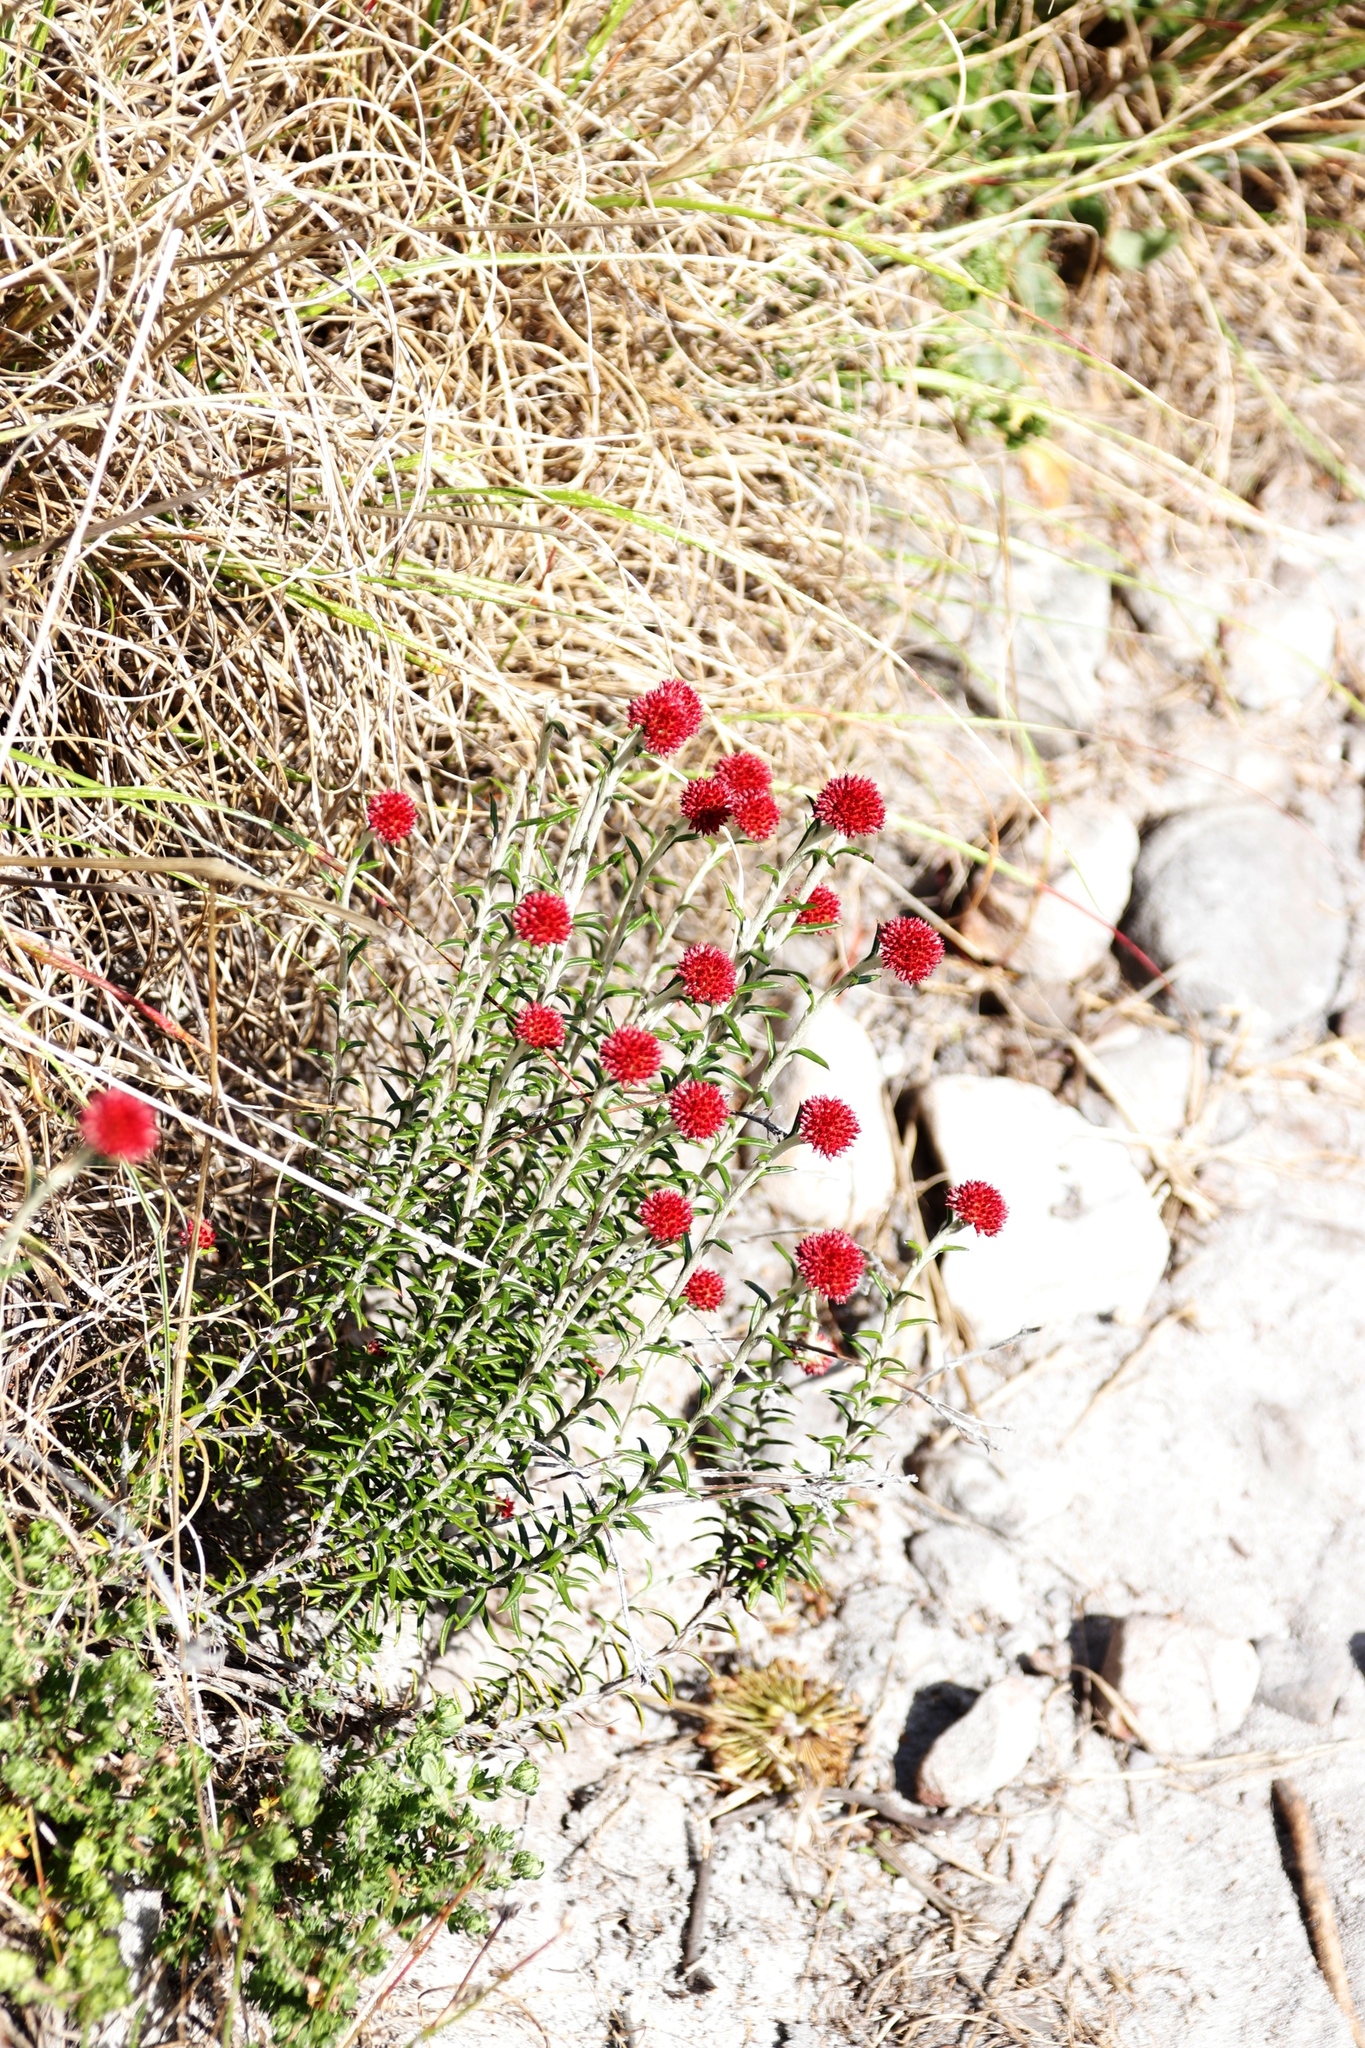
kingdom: Plantae
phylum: Tracheophyta
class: Magnoliopsida
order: Asterales
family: Asteraceae
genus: Anaxeton
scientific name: Anaxeton arborescens
